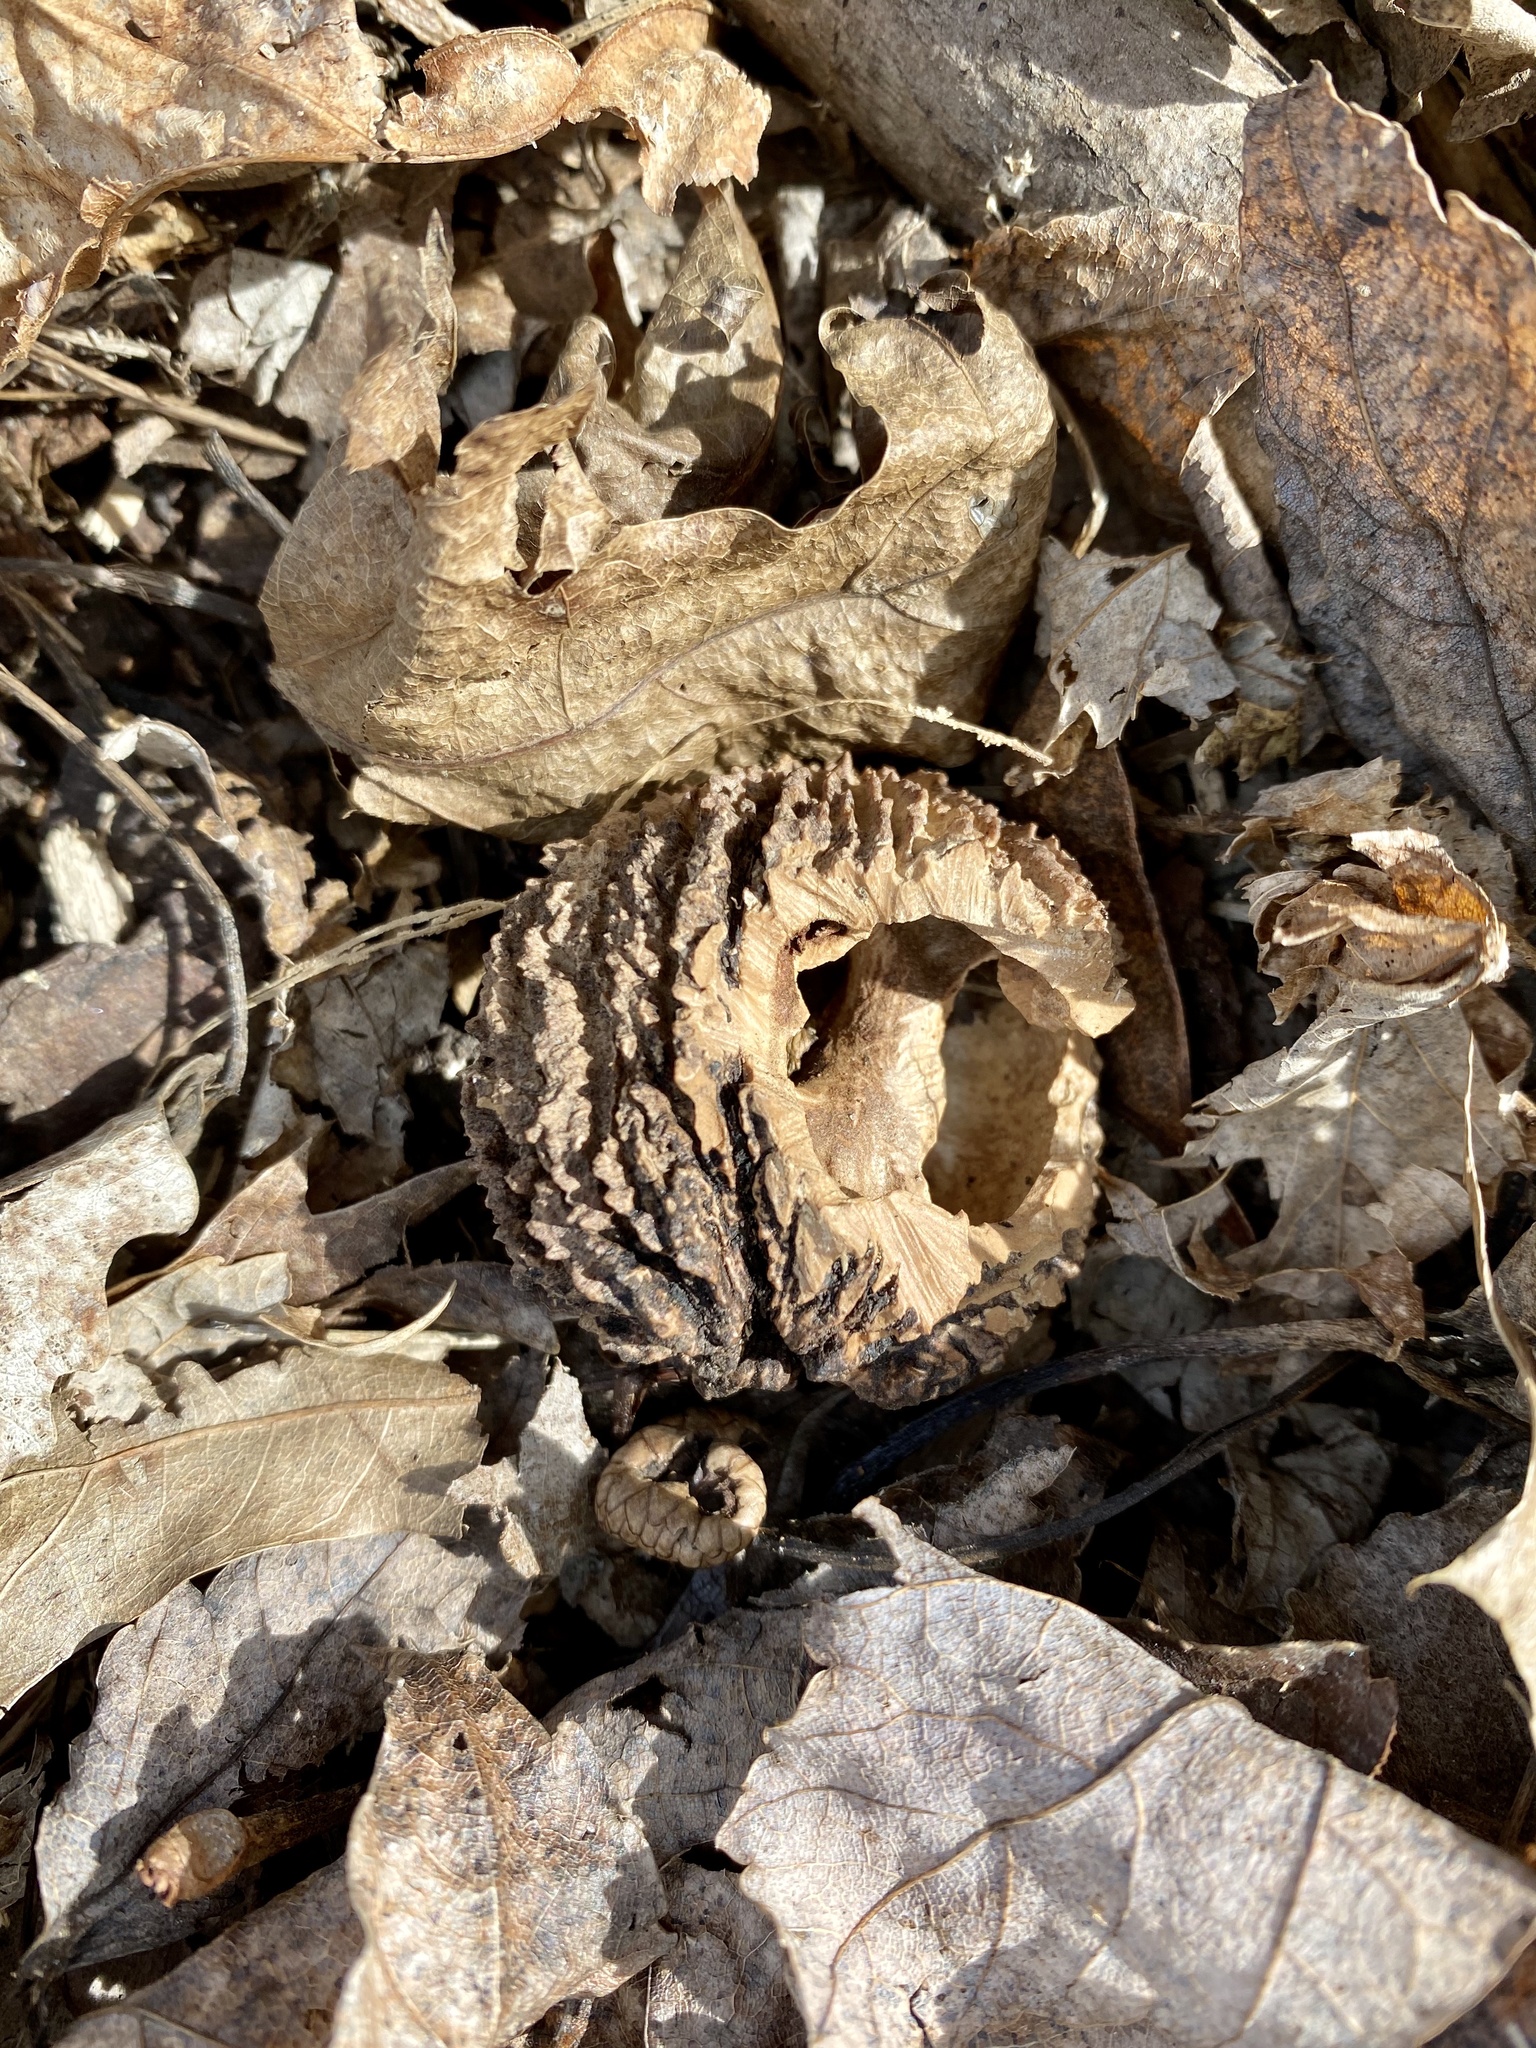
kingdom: Plantae
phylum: Tracheophyta
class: Magnoliopsida
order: Fagales
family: Juglandaceae
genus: Juglans
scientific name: Juglans nigra
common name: Black walnut
